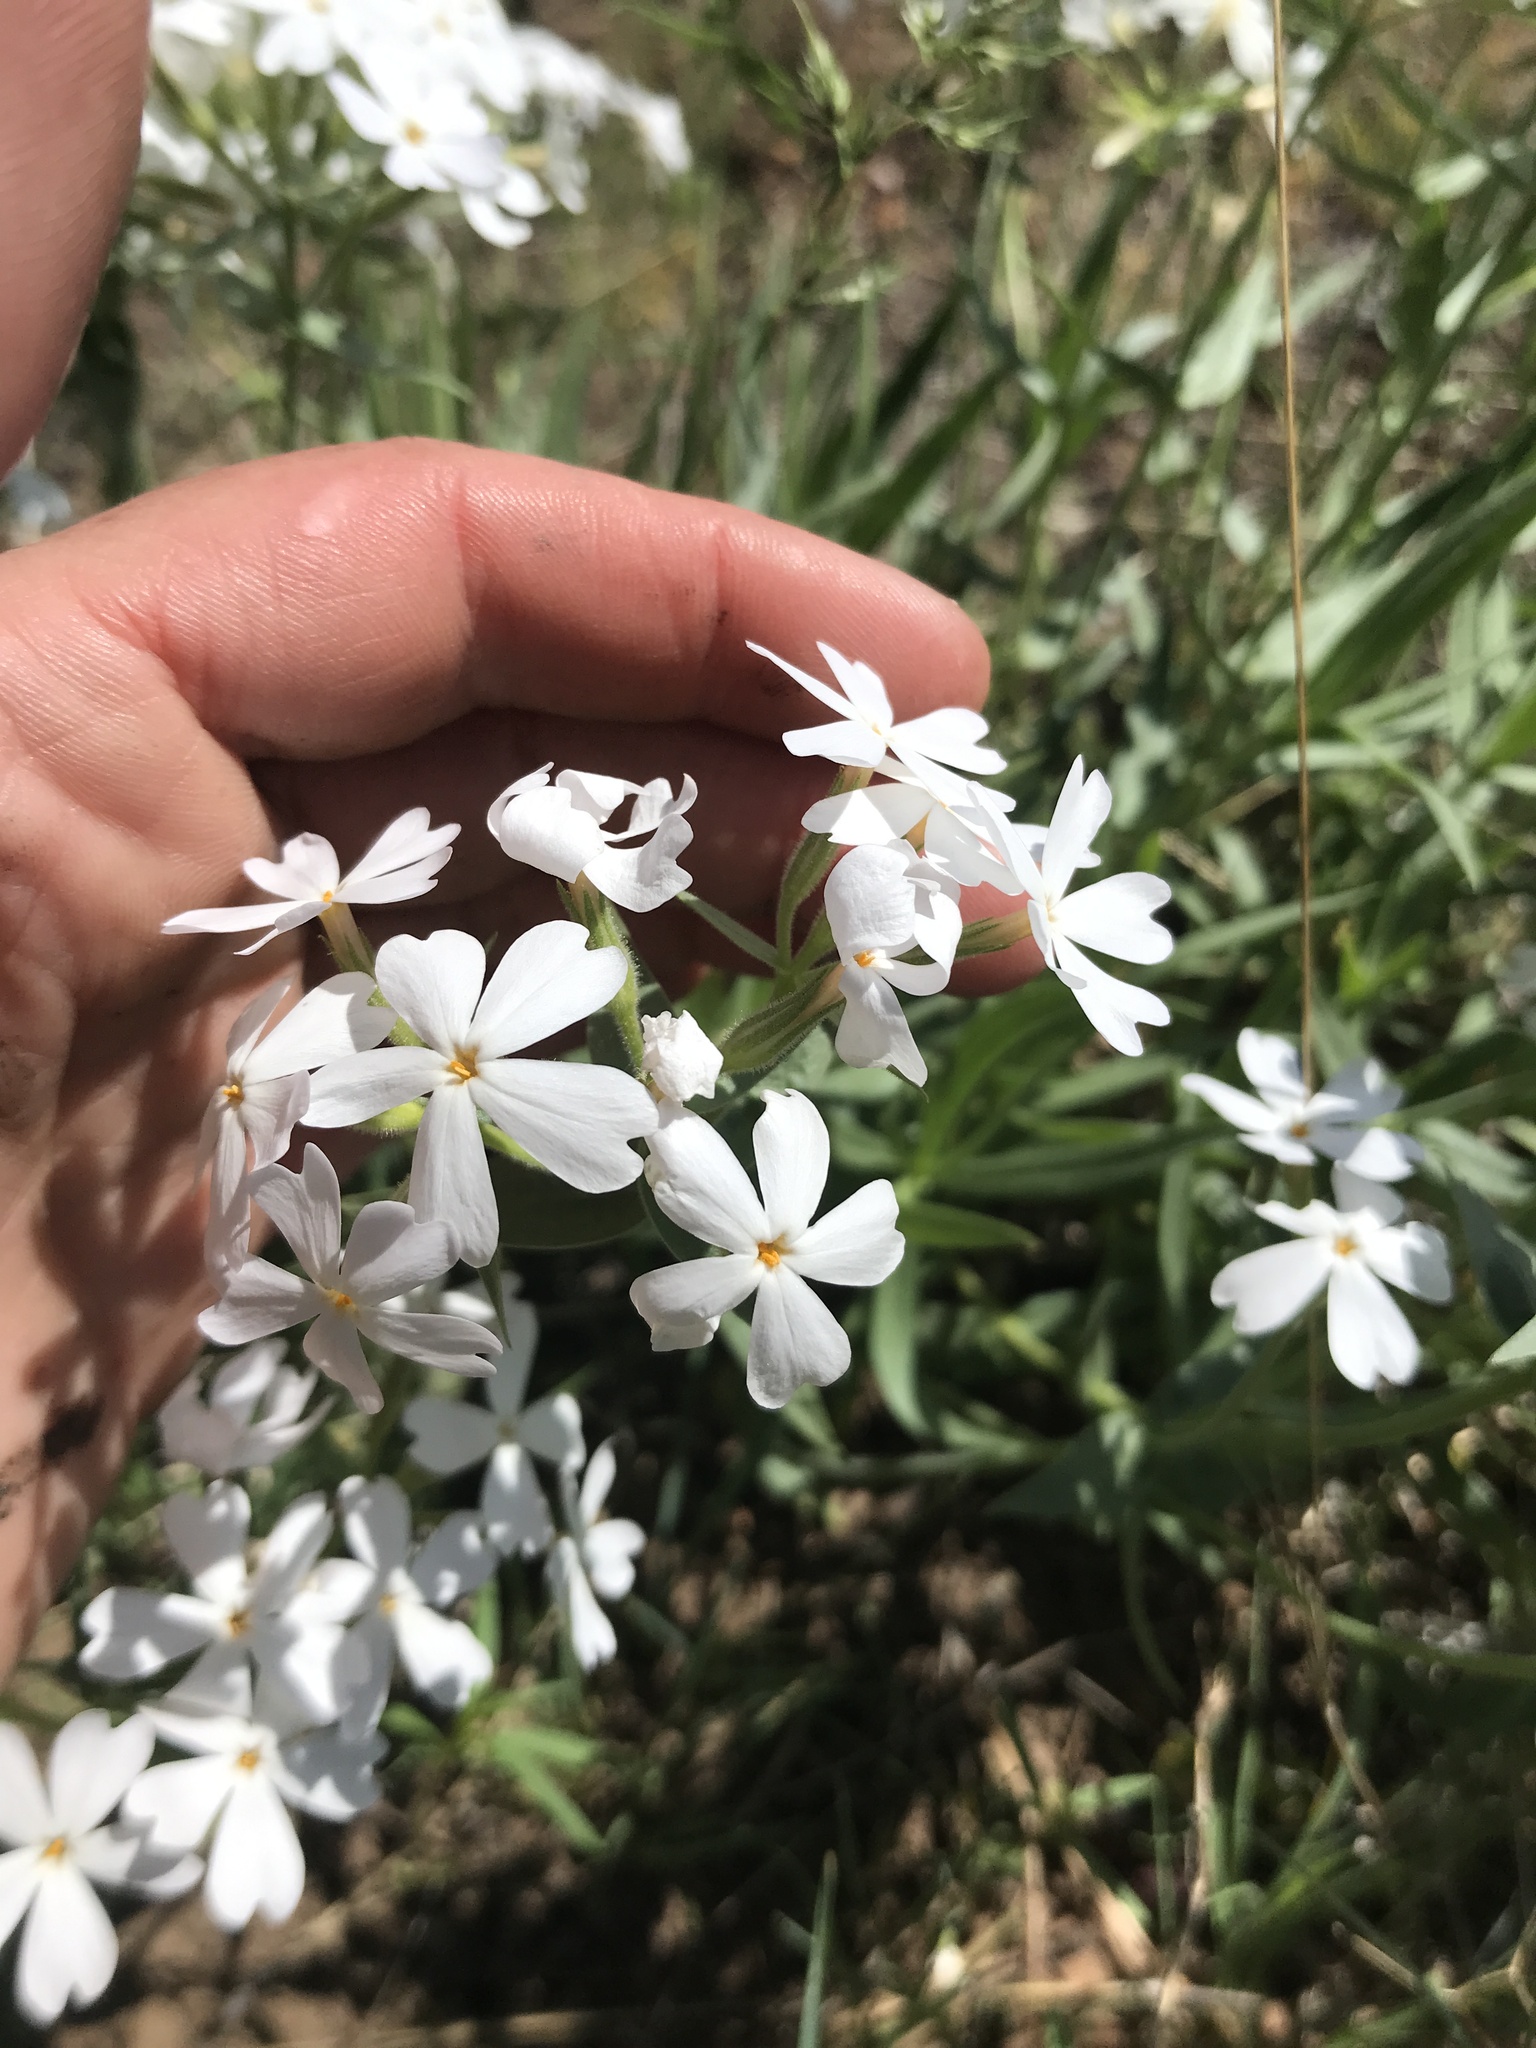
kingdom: Plantae
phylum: Tracheophyta
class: Magnoliopsida
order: Ericales
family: Polemoniaceae
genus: Phlox
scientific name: Phlox speciosa
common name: Bush phlox
